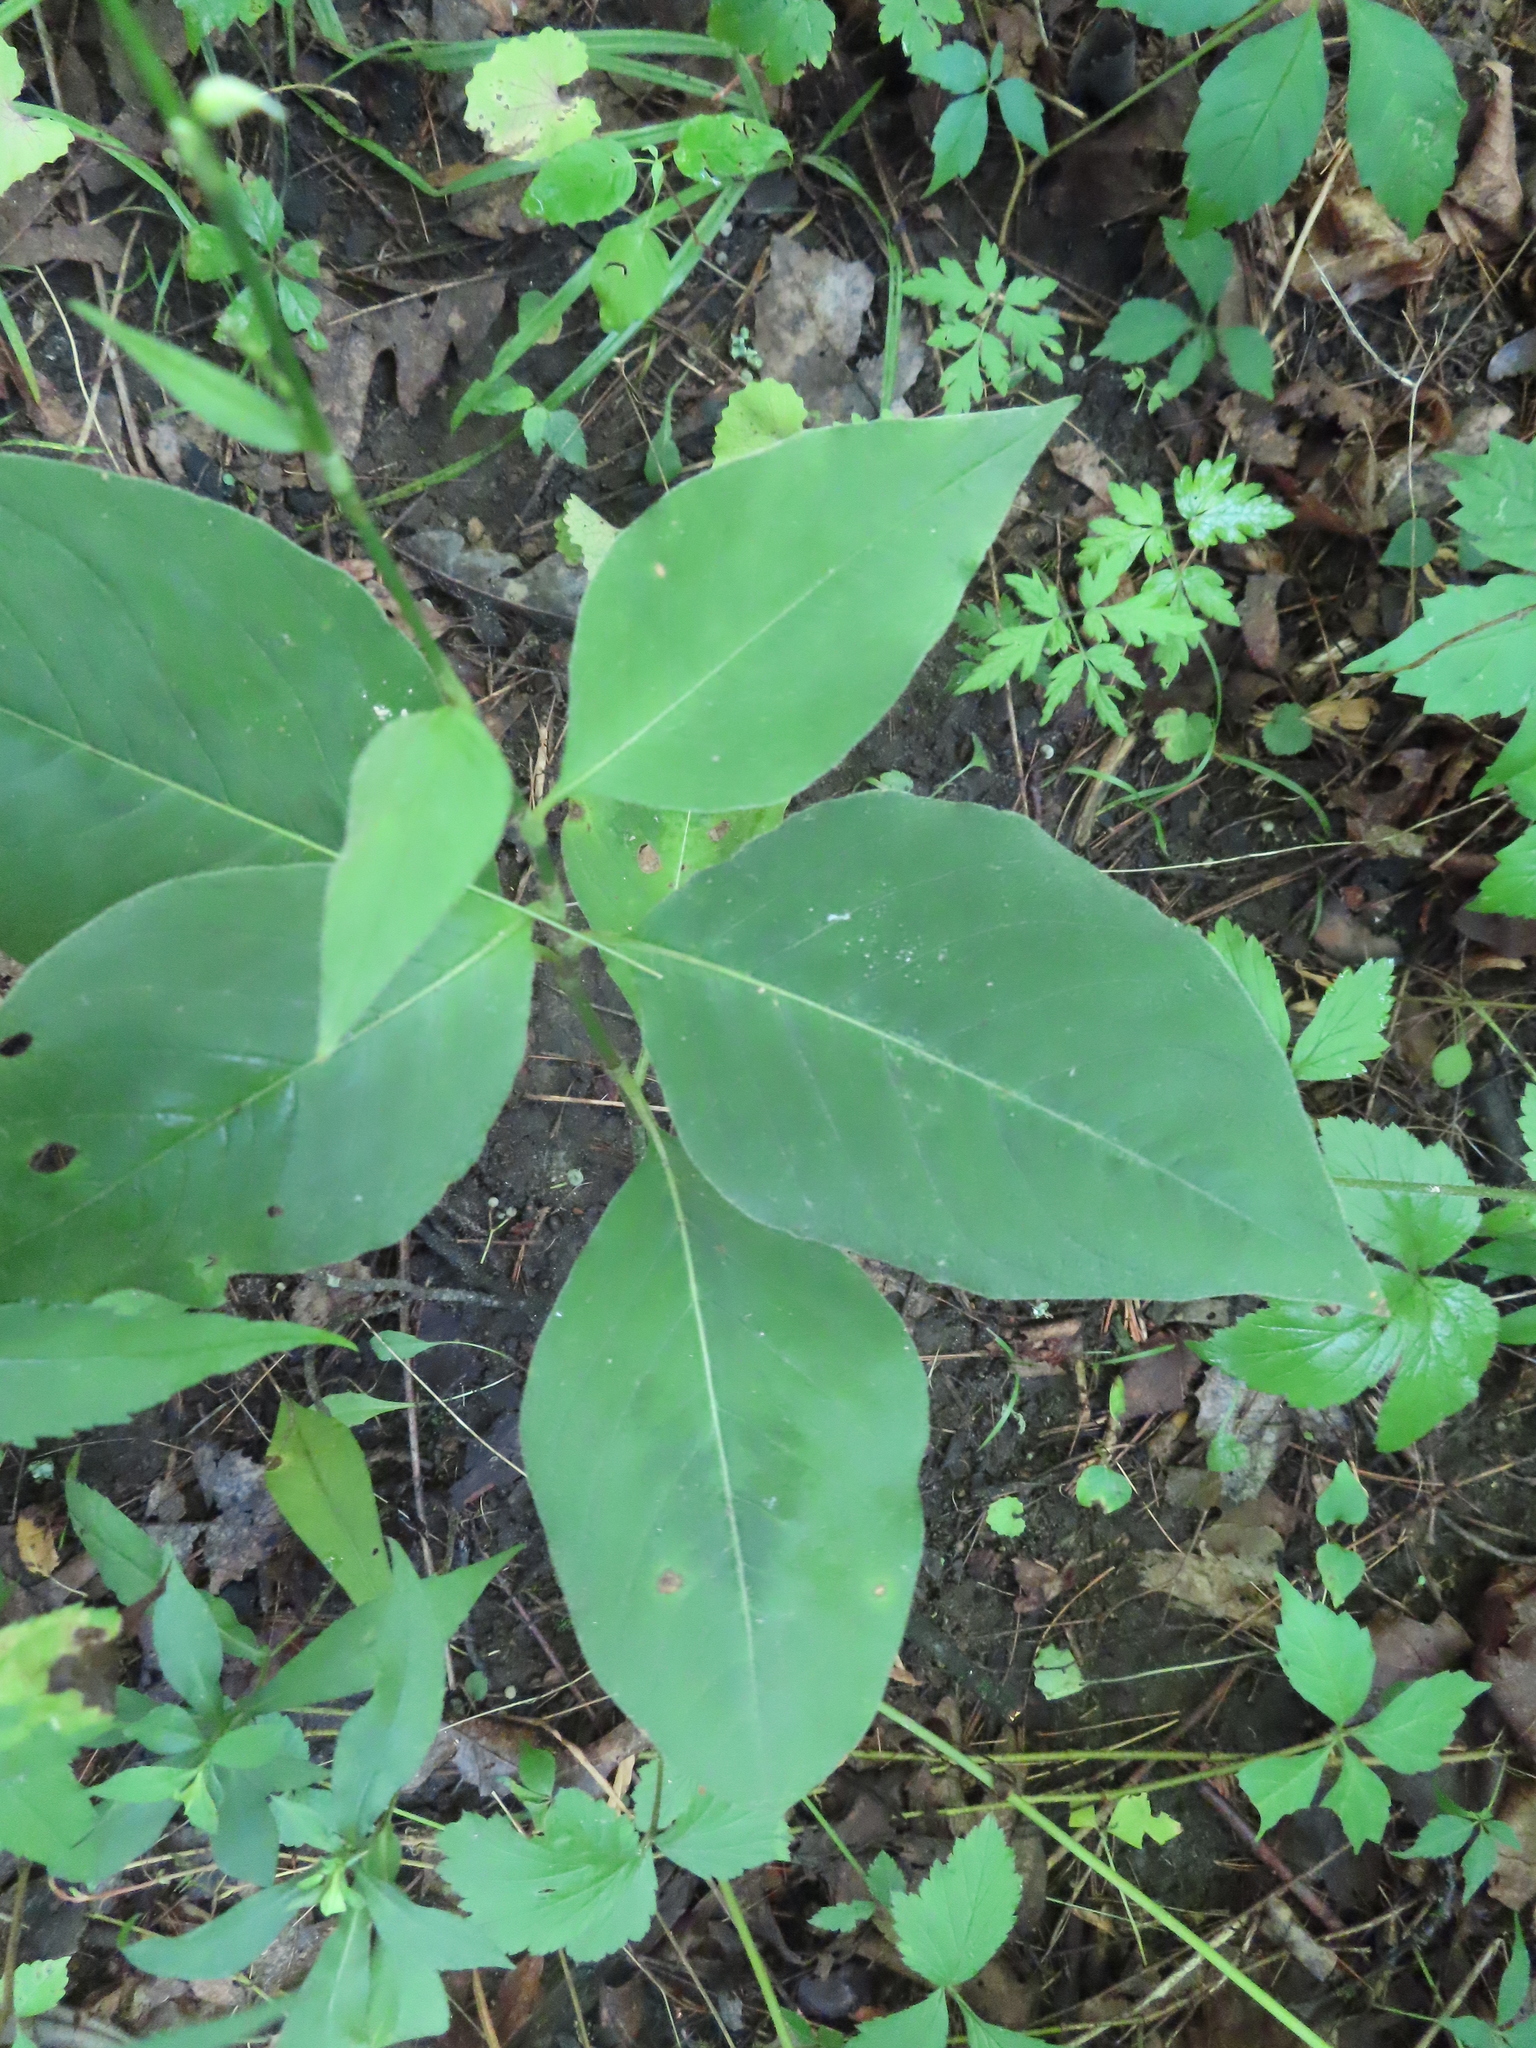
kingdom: Plantae
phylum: Tracheophyta
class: Magnoliopsida
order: Caryophyllales
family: Polygonaceae
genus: Persicaria
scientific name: Persicaria virginiana
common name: Jumpseed
